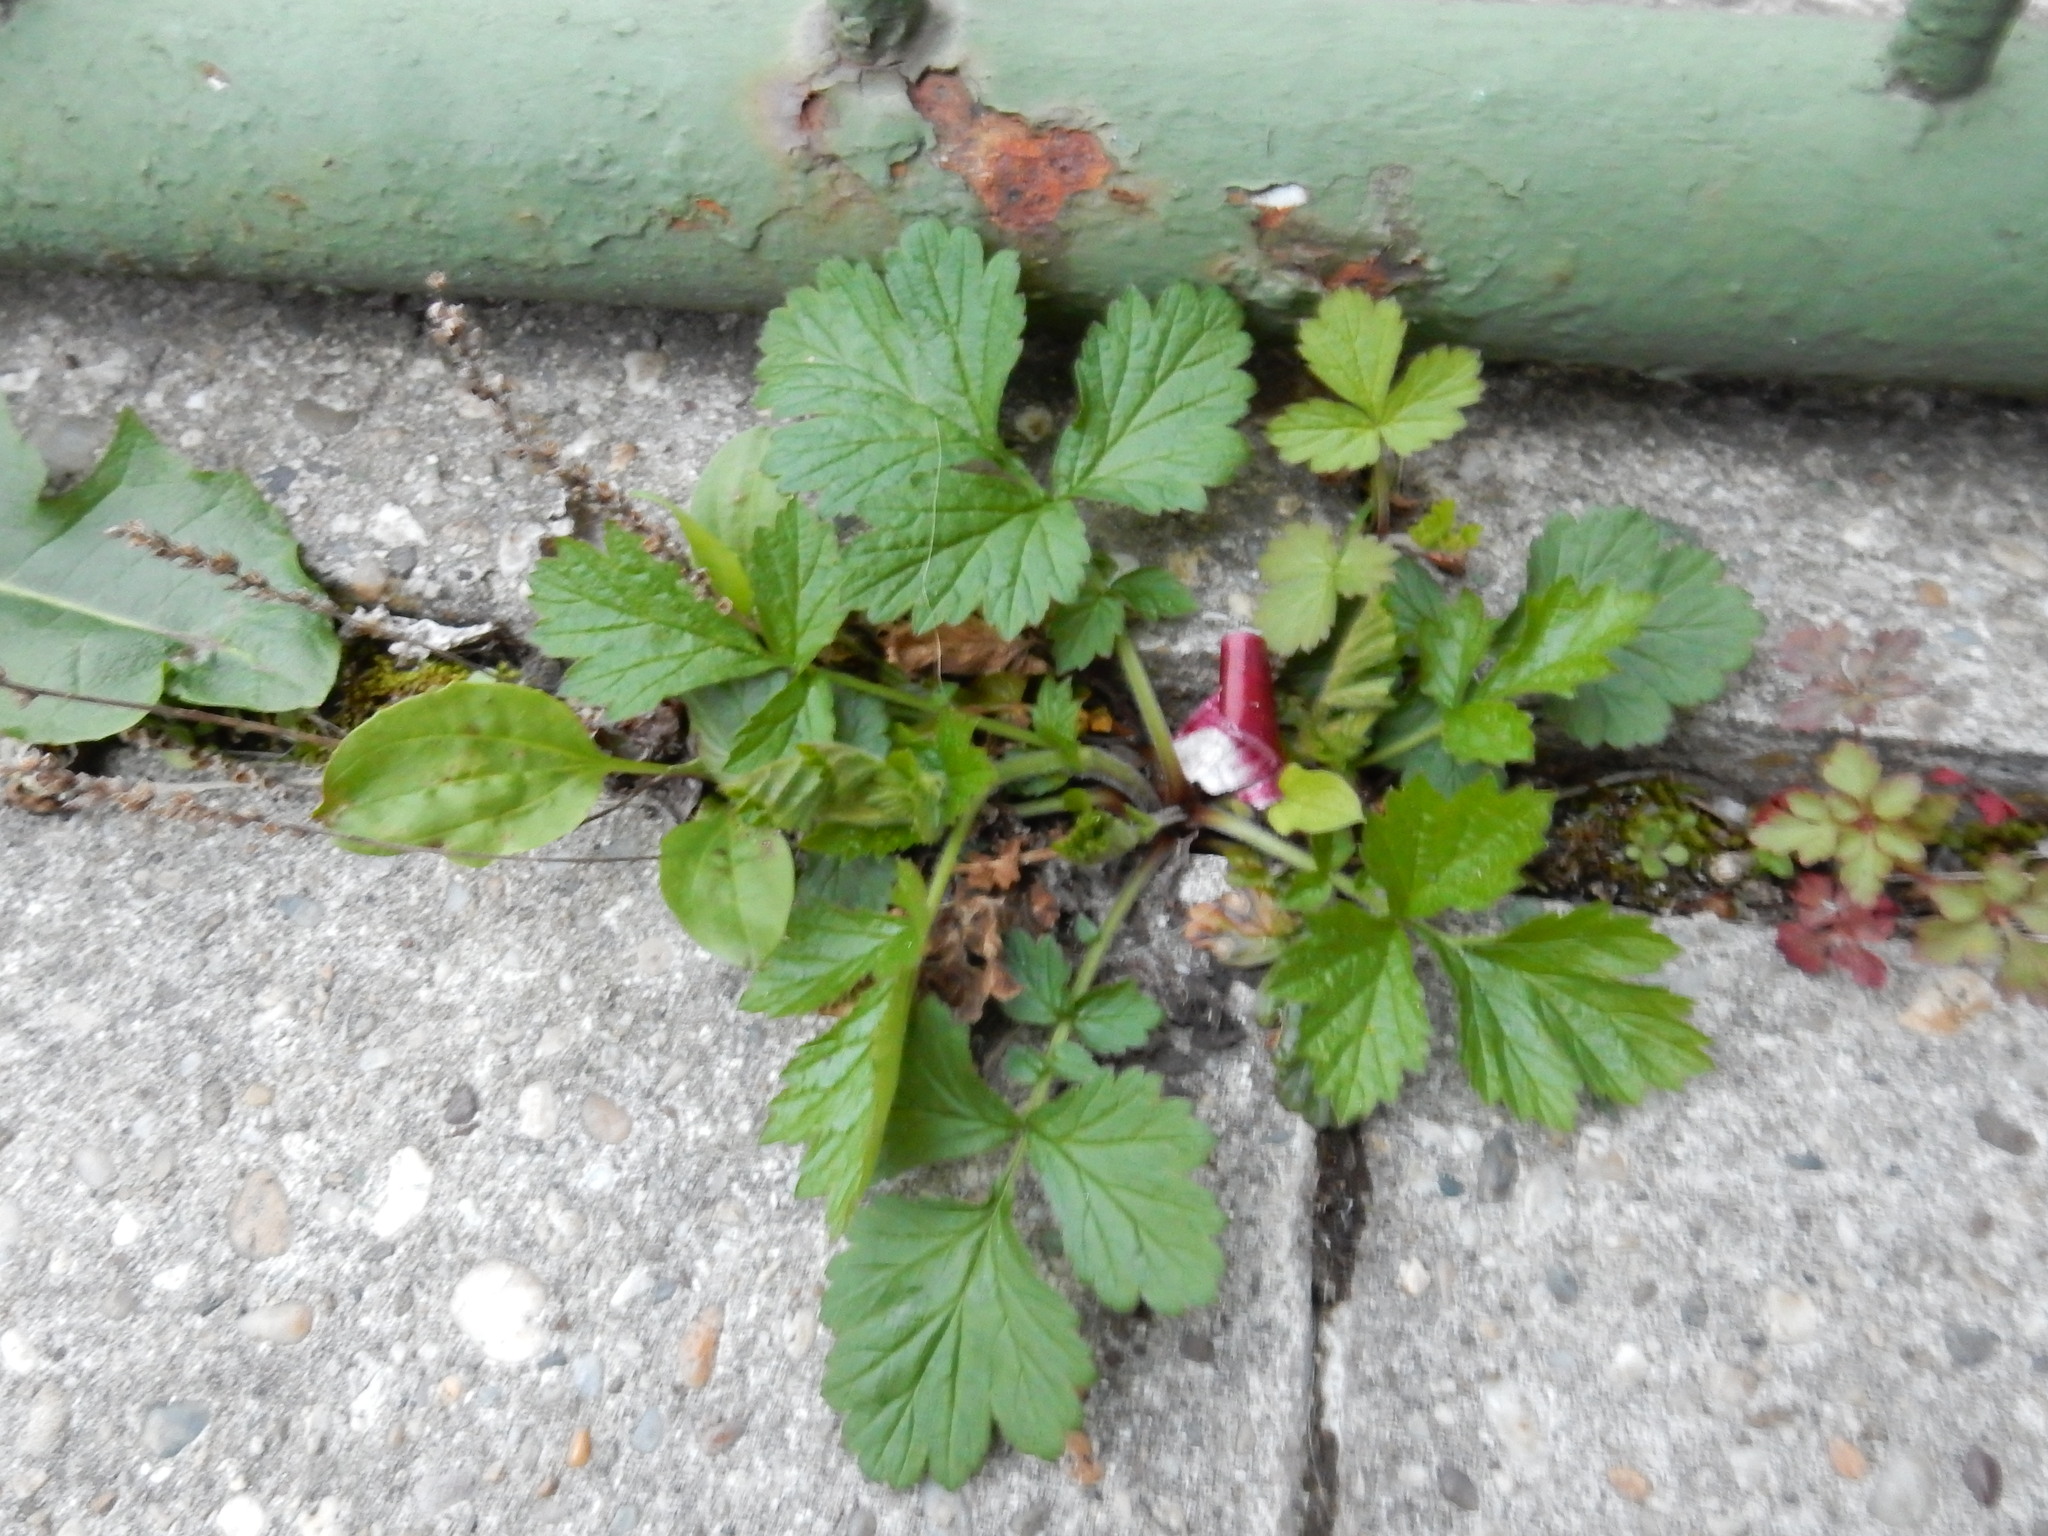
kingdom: Plantae
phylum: Tracheophyta
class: Magnoliopsida
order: Rosales
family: Rosaceae
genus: Geum
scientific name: Geum urbanum
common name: Wood avens
